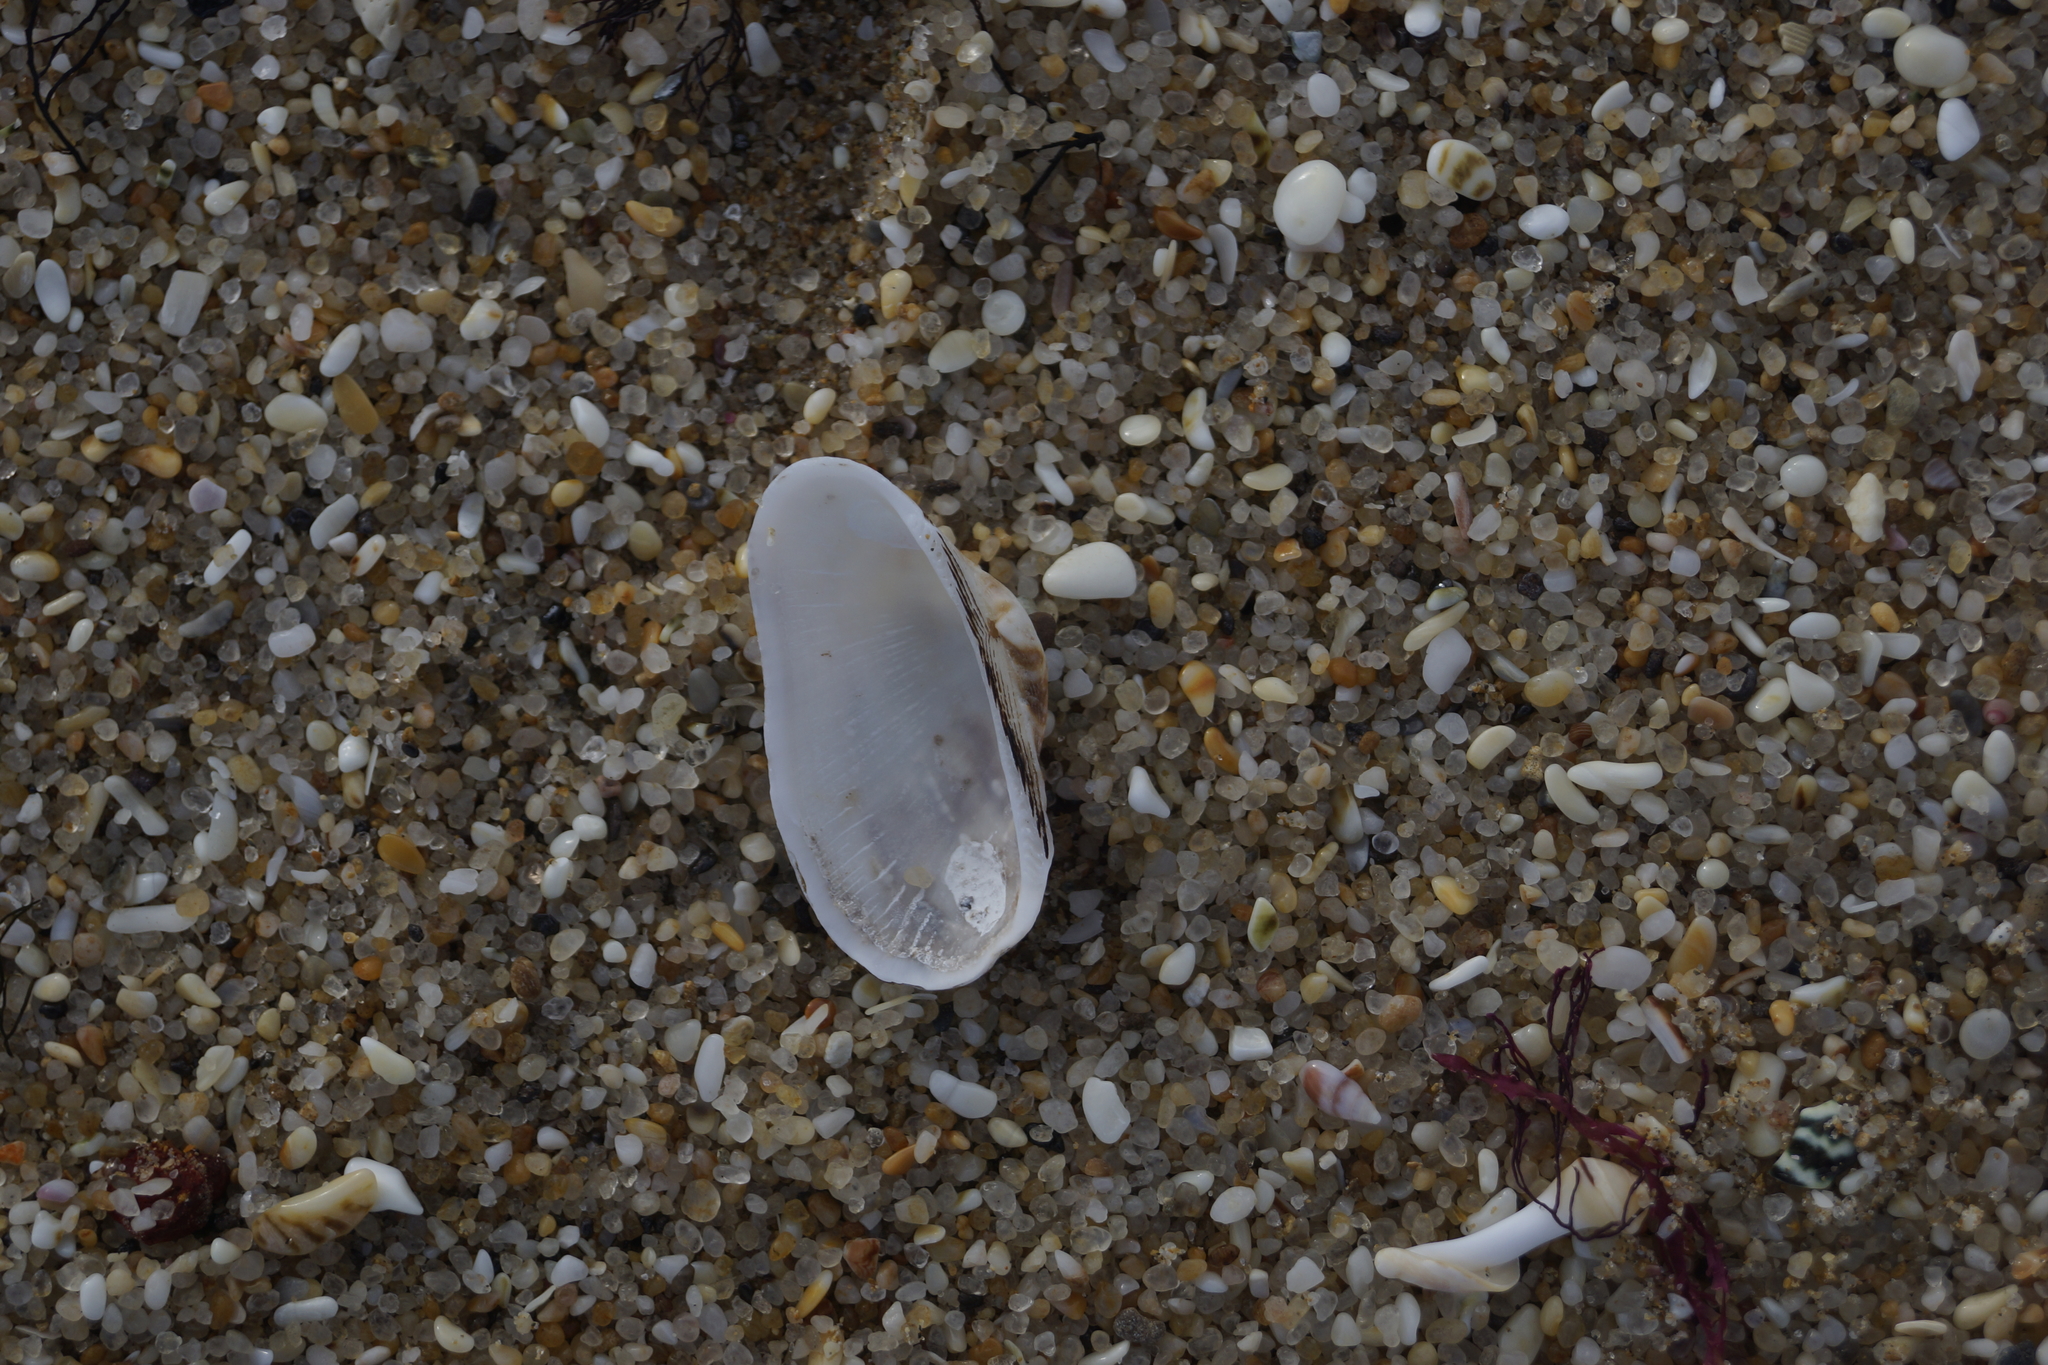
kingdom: Animalia
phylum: Mollusca
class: Bivalvia
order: Arcida
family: Arcidae
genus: Barbatia
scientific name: Barbatia pistachia
